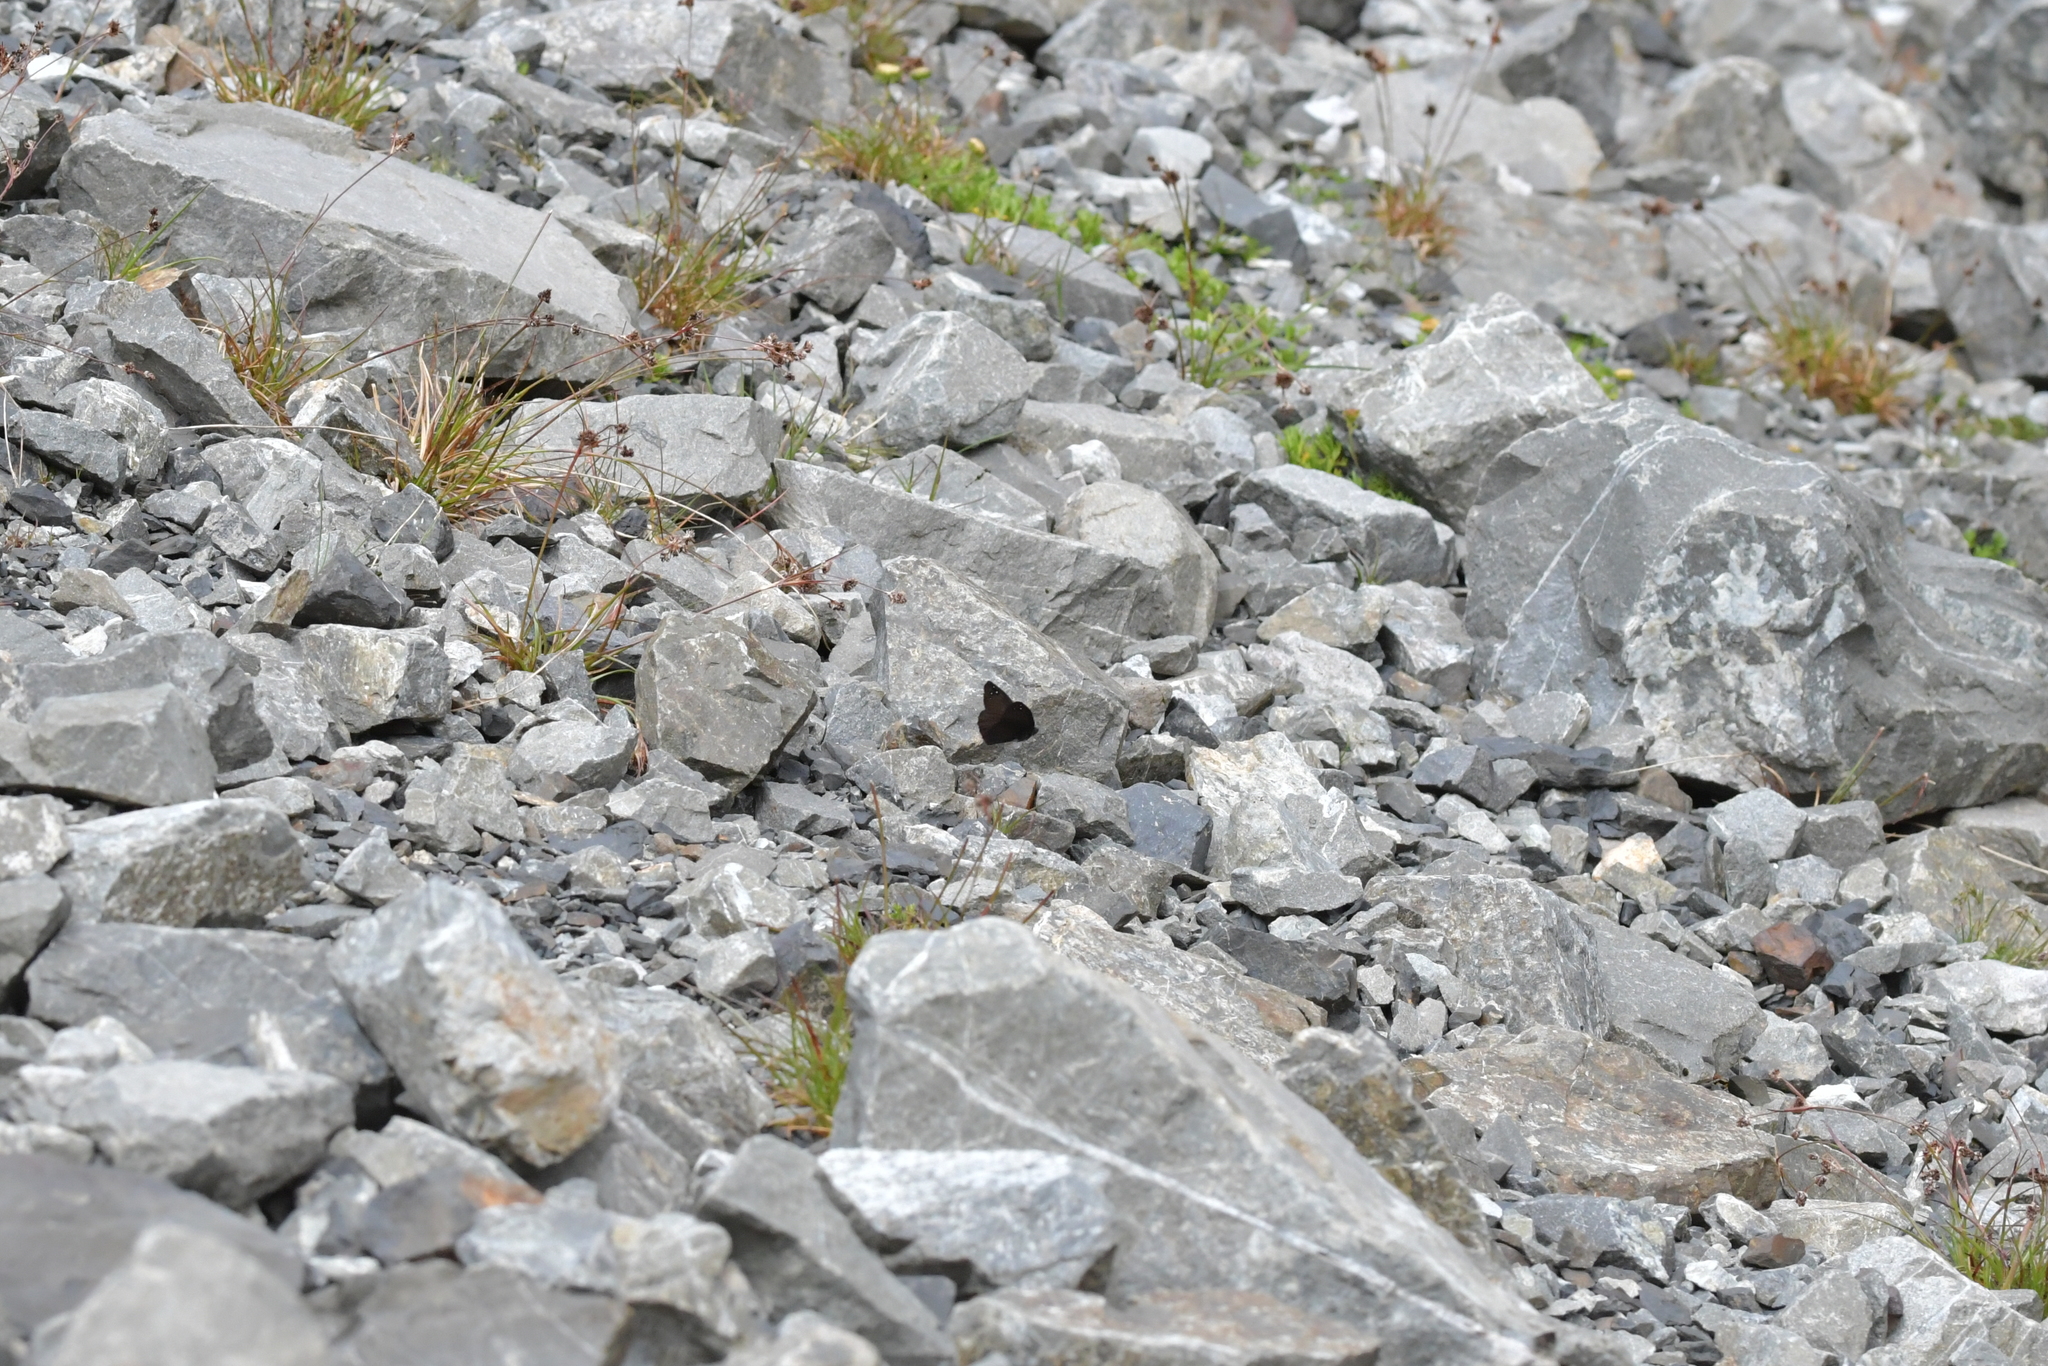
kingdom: Animalia
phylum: Arthropoda
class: Insecta
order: Lepidoptera
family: Nymphalidae
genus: Erebia
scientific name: Erebia Percnodaimon merula
